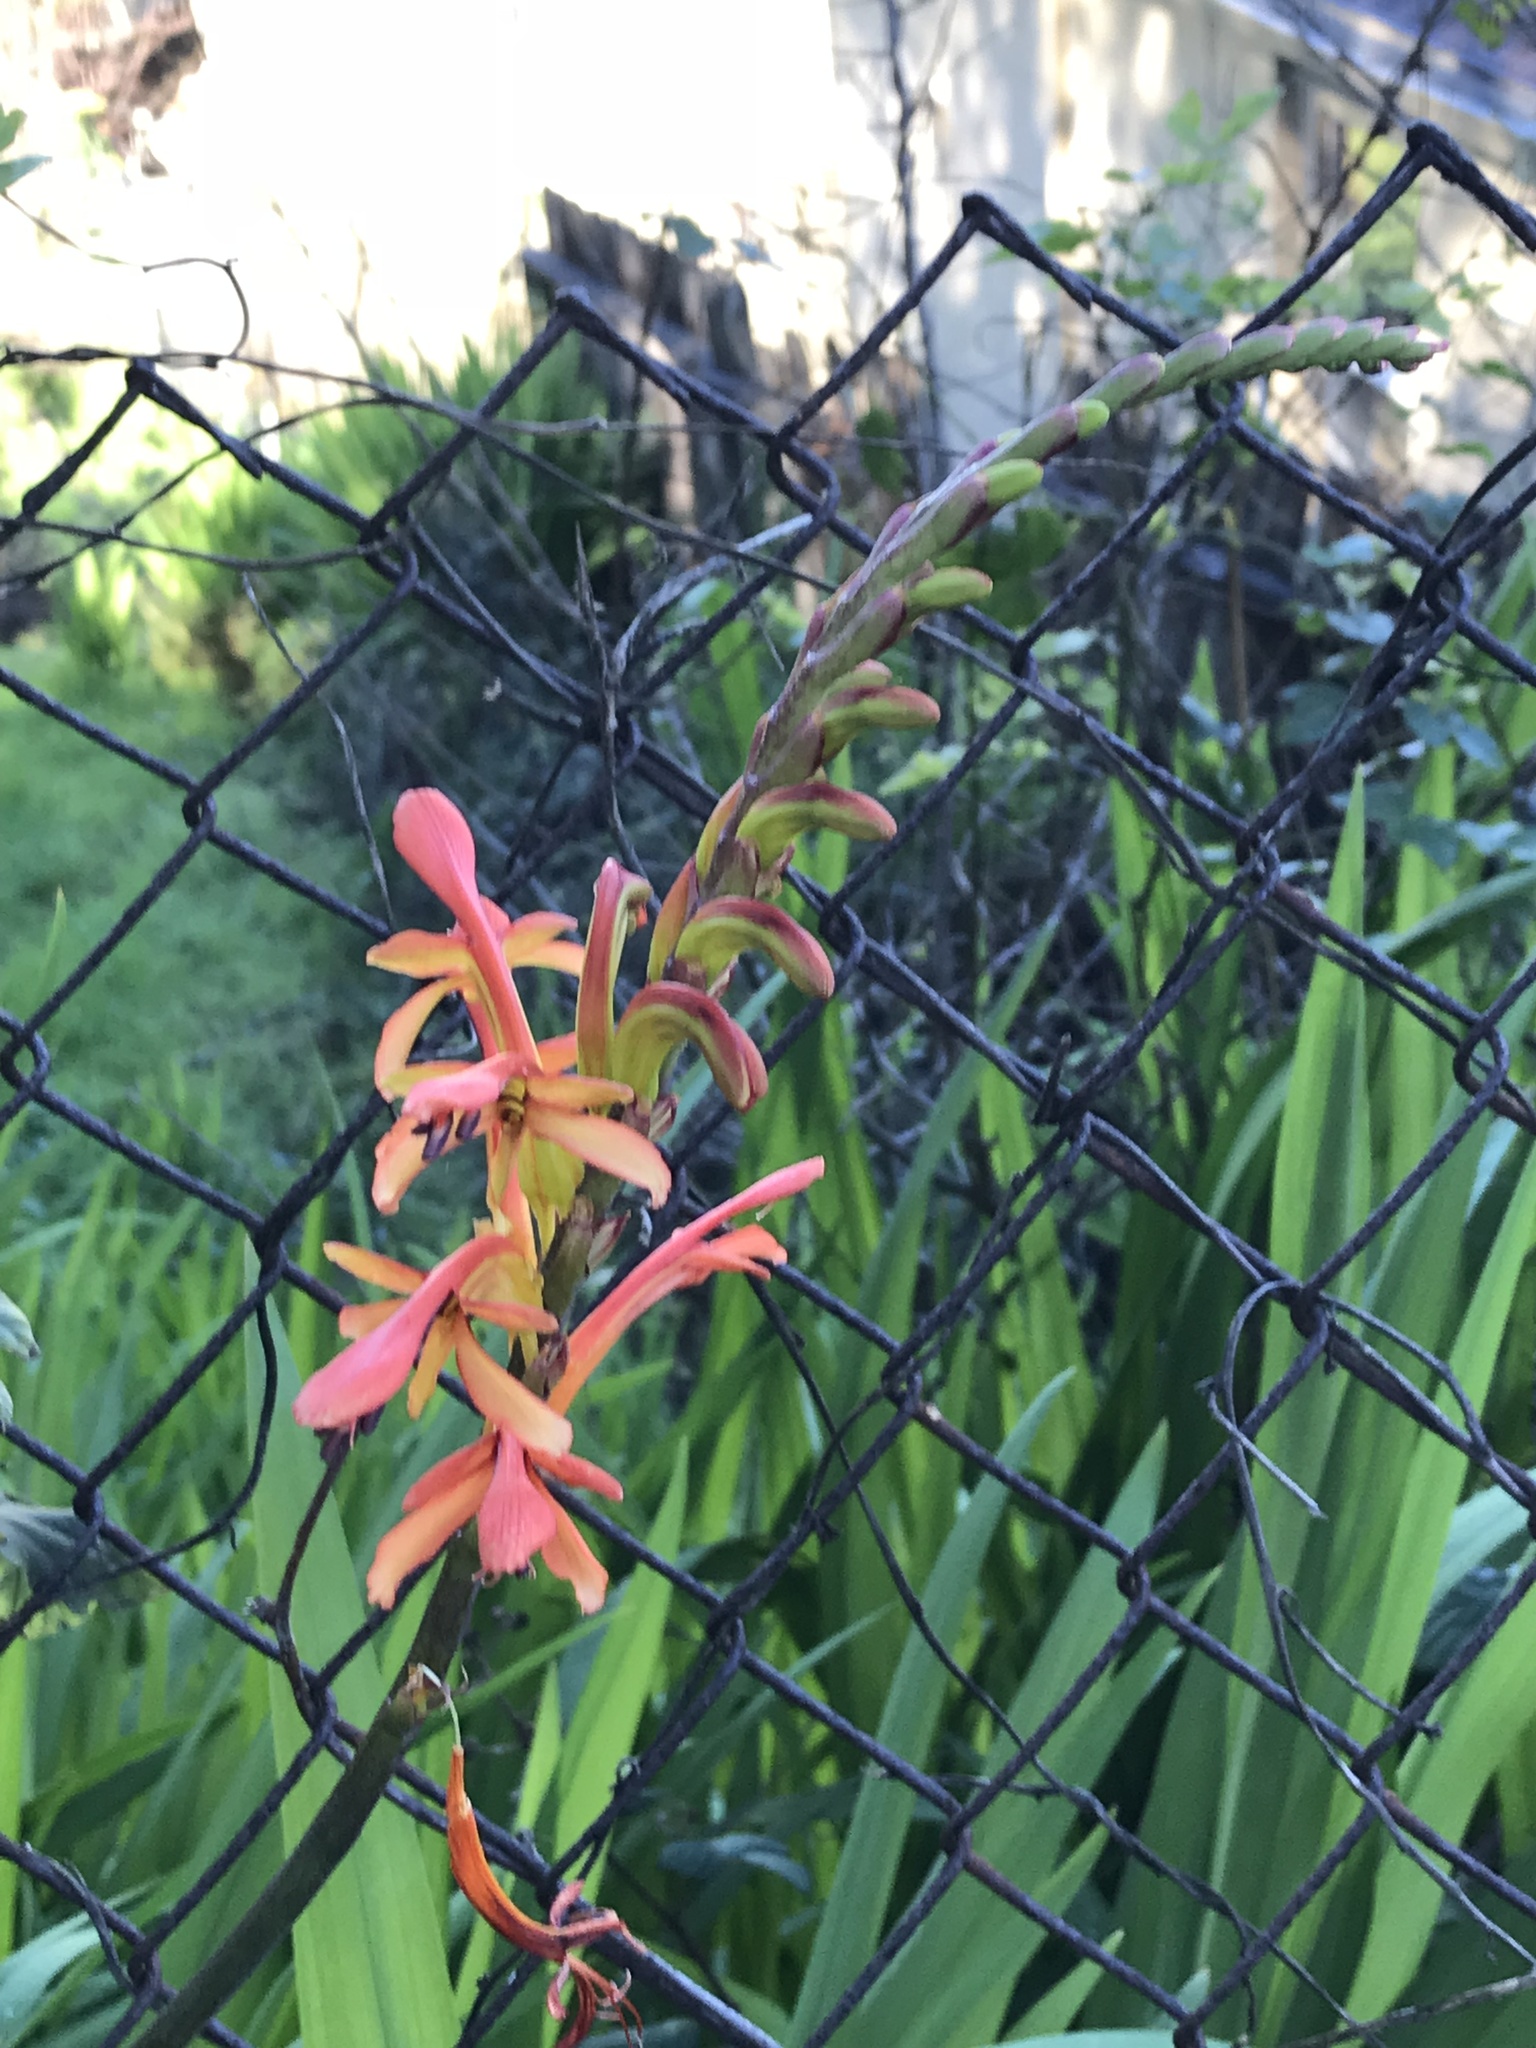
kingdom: Plantae
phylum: Tracheophyta
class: Liliopsida
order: Asparagales
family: Iridaceae
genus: Chasmanthe
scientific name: Chasmanthe floribunda
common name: African cornflag
